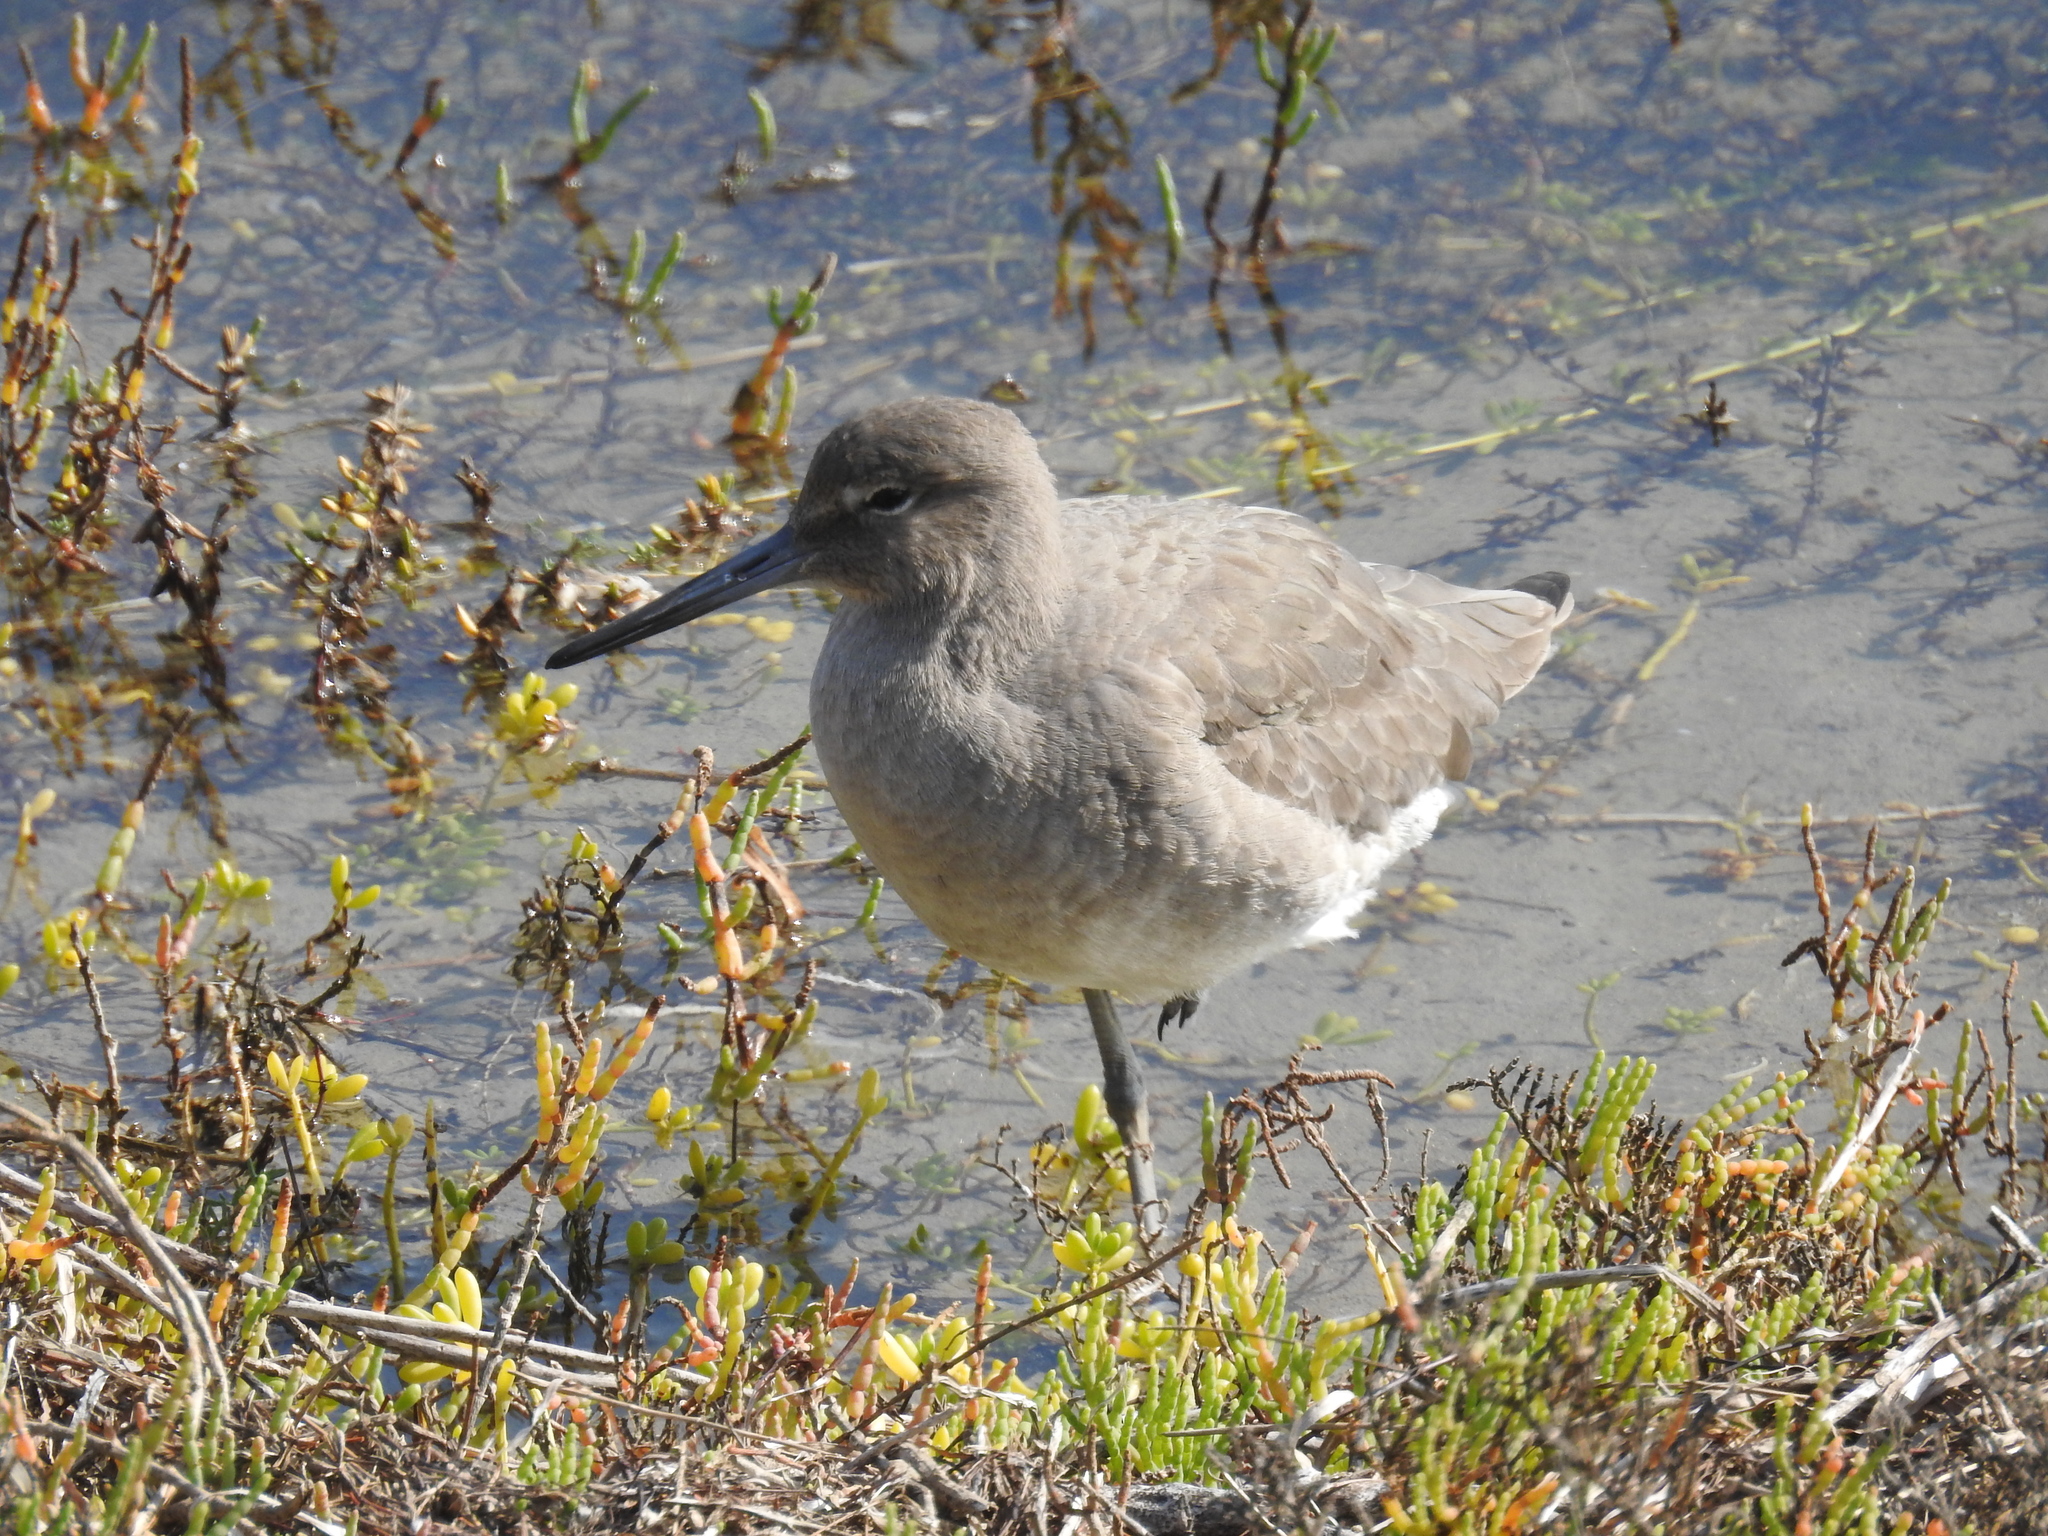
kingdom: Animalia
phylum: Chordata
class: Aves
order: Charadriiformes
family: Scolopacidae
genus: Tringa
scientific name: Tringa semipalmata
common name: Willet
